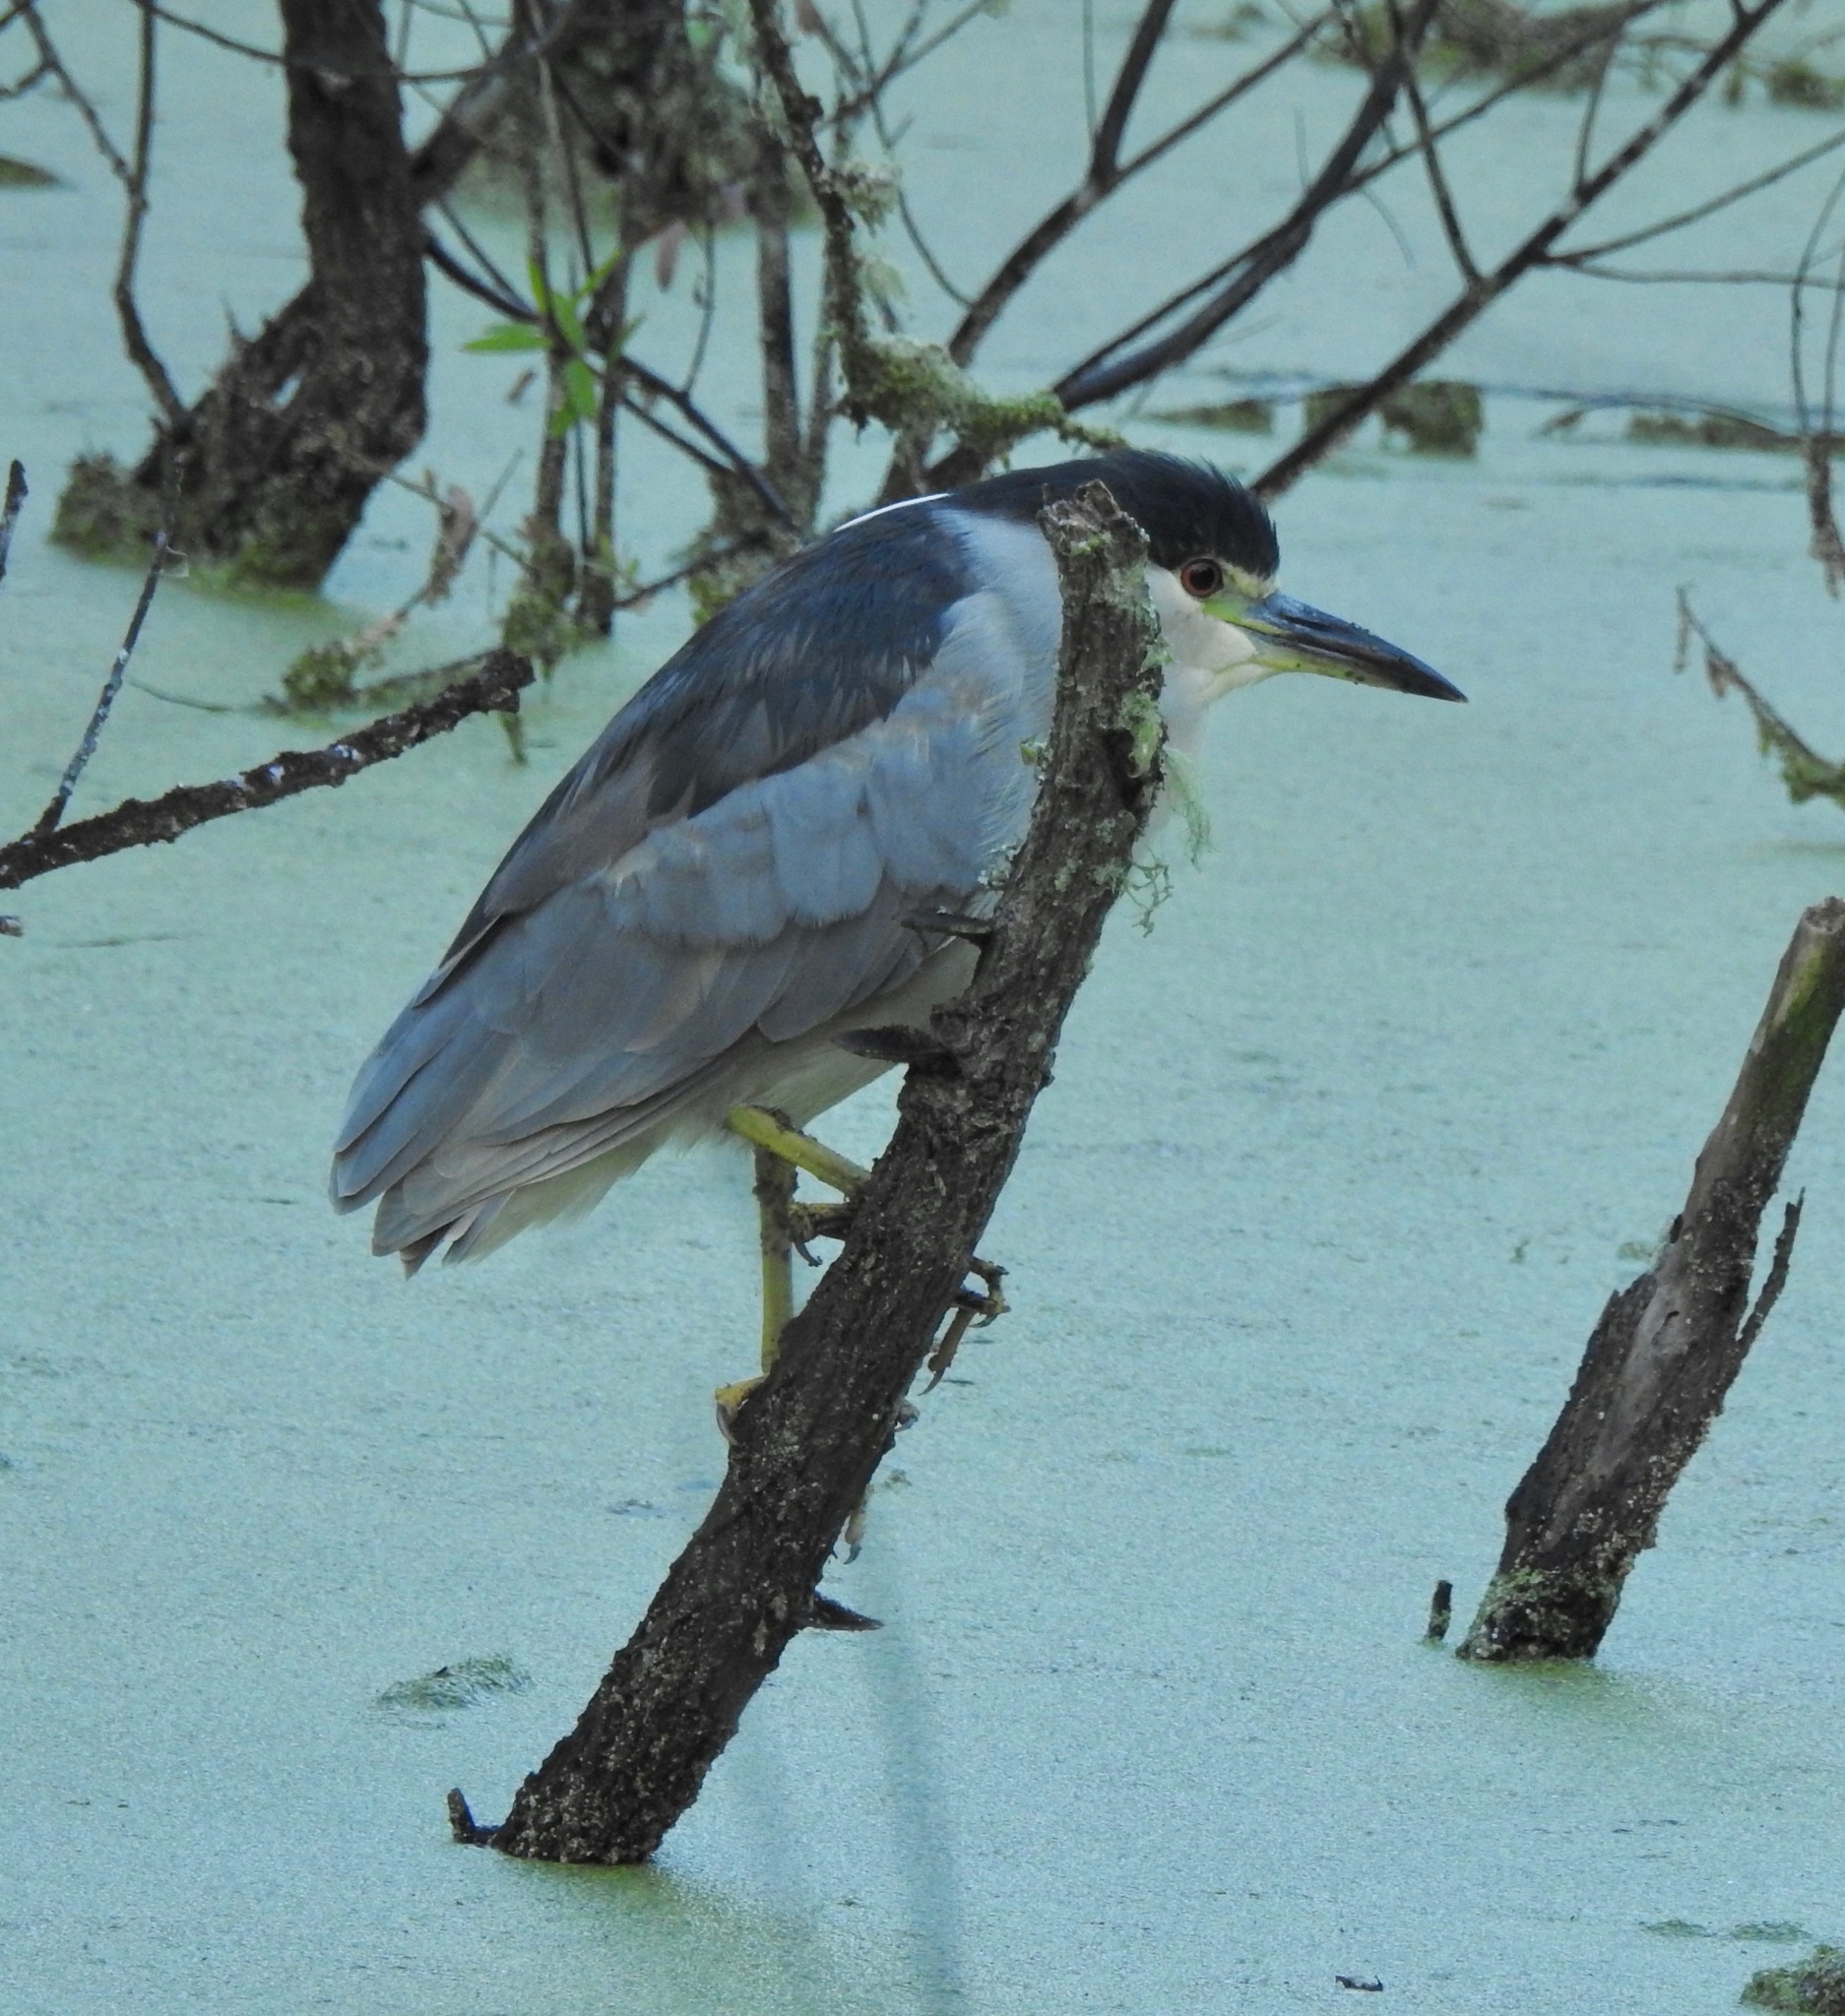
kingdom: Animalia
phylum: Chordata
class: Aves
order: Pelecaniformes
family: Ardeidae
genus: Nycticorax
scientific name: Nycticorax nycticorax
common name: Black-crowned night heron
